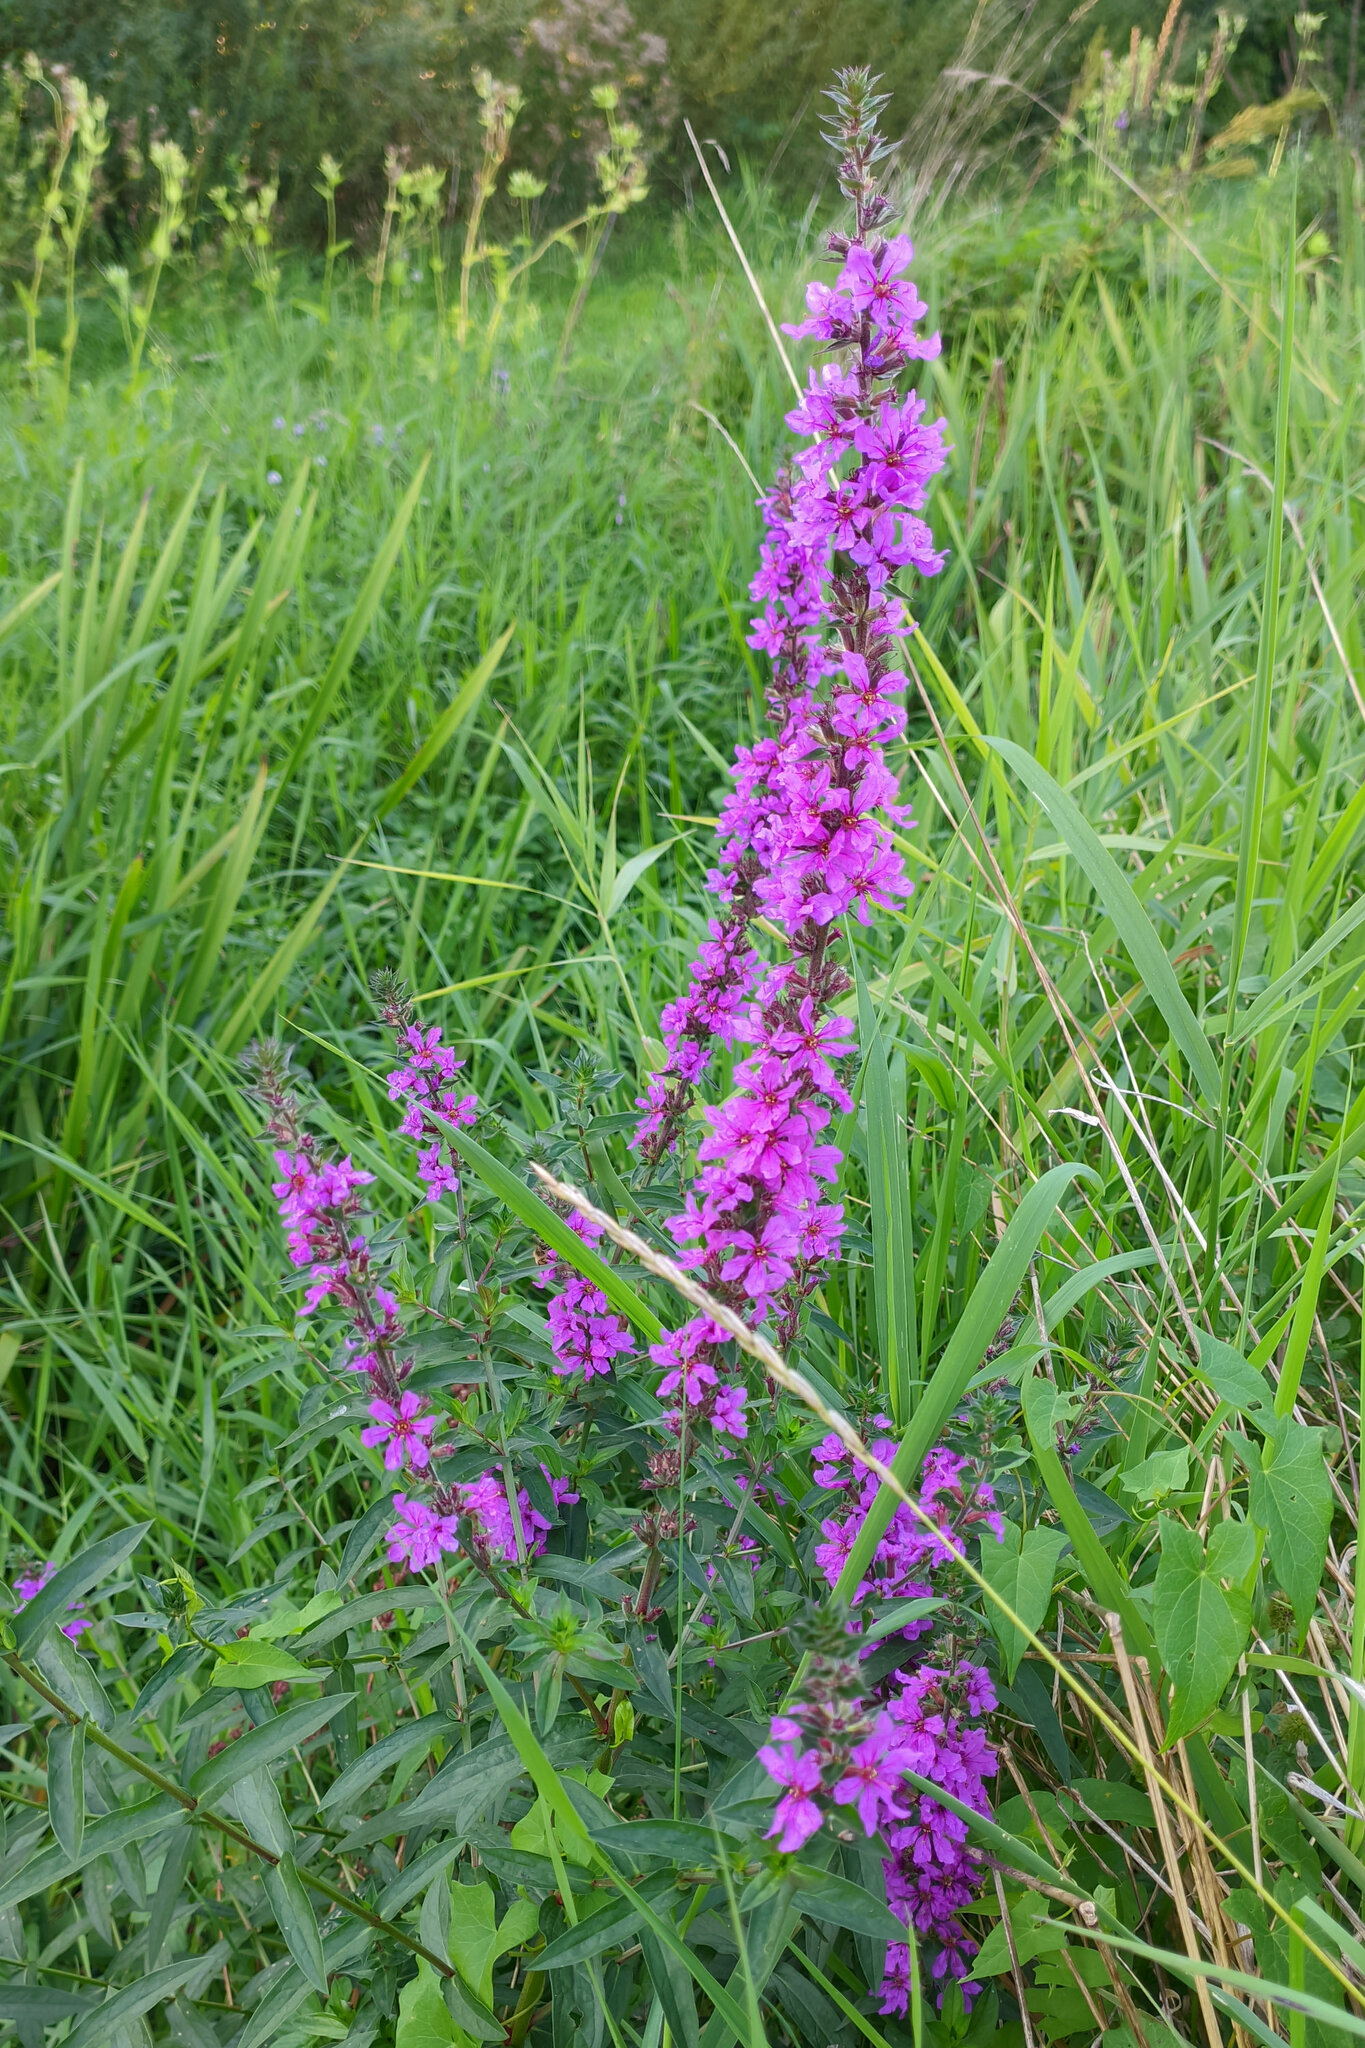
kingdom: Plantae
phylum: Tracheophyta
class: Magnoliopsida
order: Myrtales
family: Lythraceae
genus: Lythrum
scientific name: Lythrum salicaria
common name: Purple loosestrife
